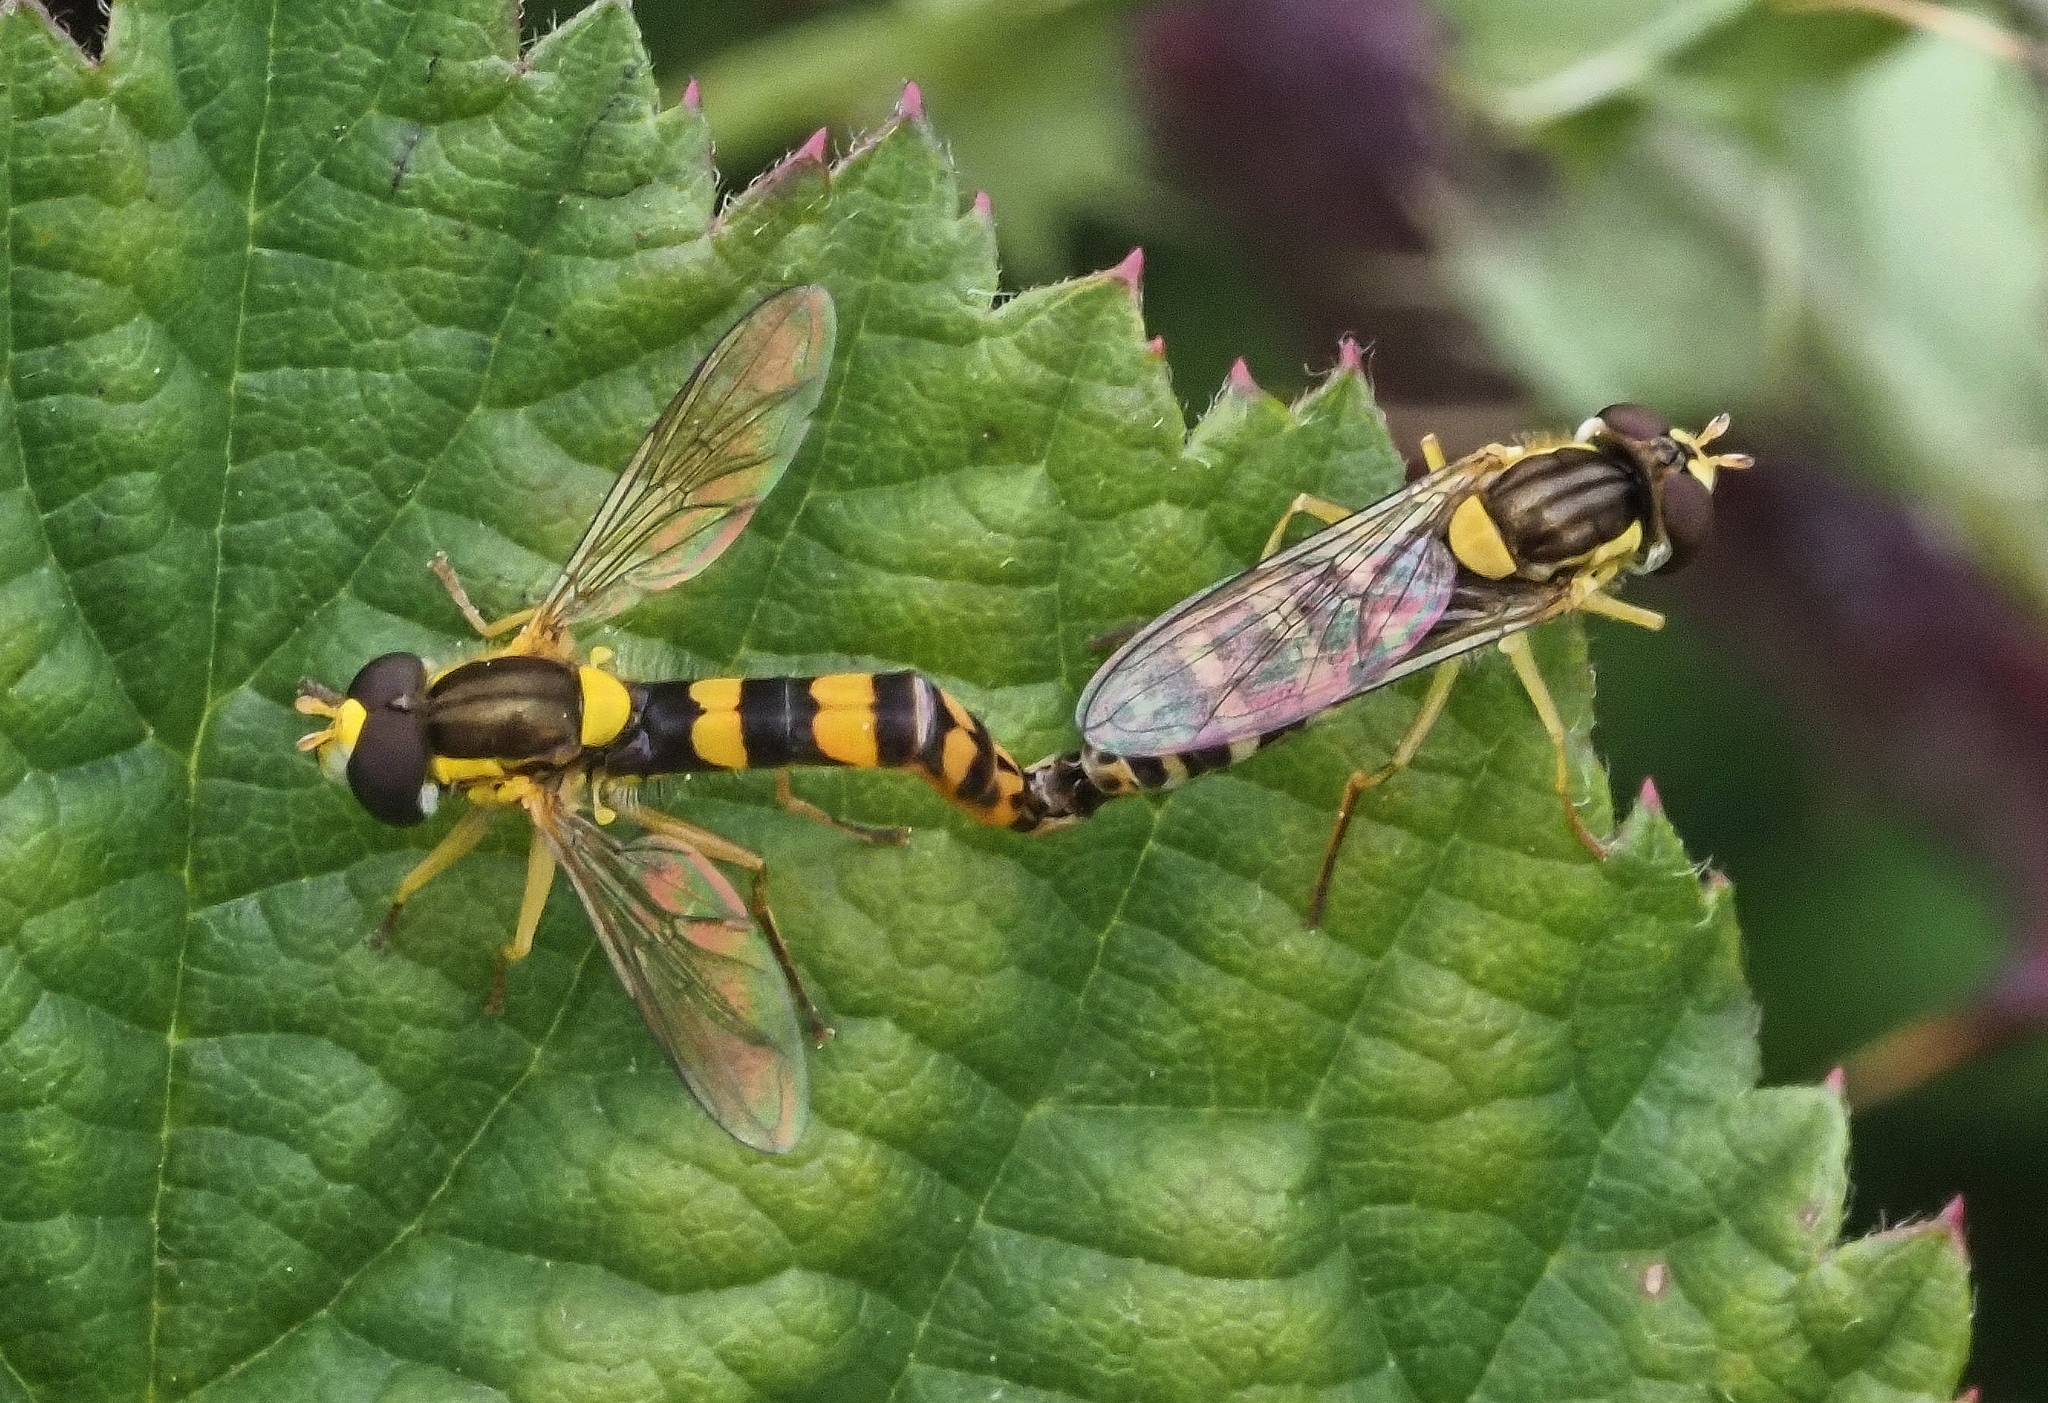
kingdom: Animalia
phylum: Arthropoda
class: Insecta
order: Diptera
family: Syrphidae
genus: Sphaerophoria
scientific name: Sphaerophoria scripta
